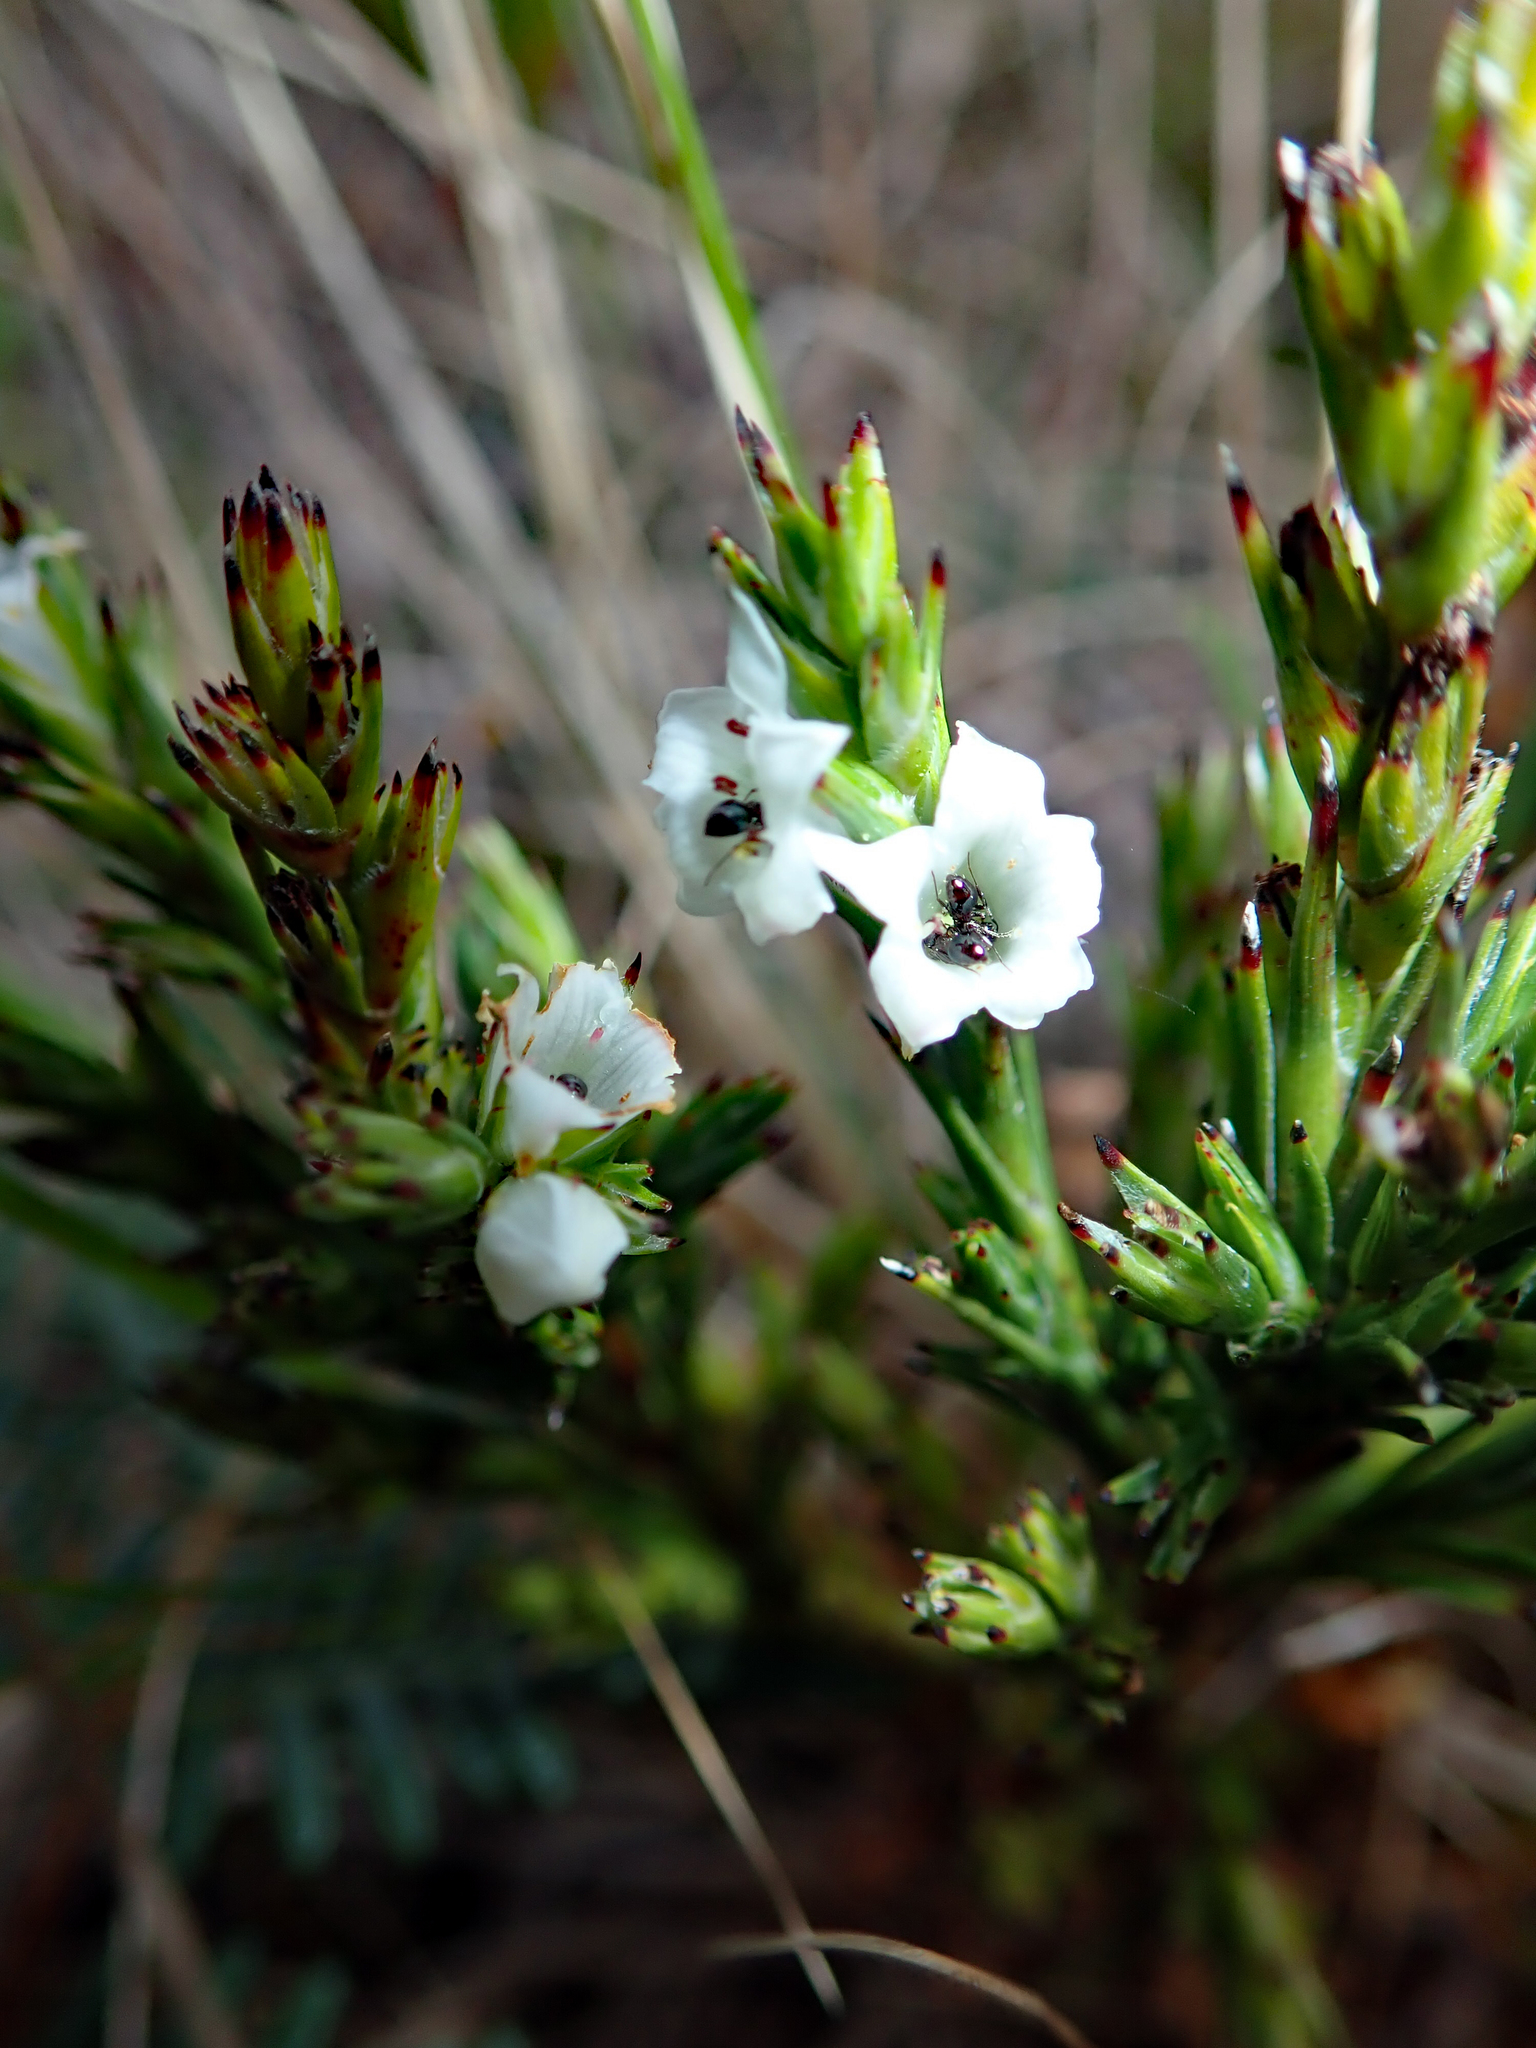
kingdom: Plantae
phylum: Tracheophyta
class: Magnoliopsida
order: Ericales
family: Ericaceae
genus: Dracophyllum
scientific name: Dracophyllum scoparium
